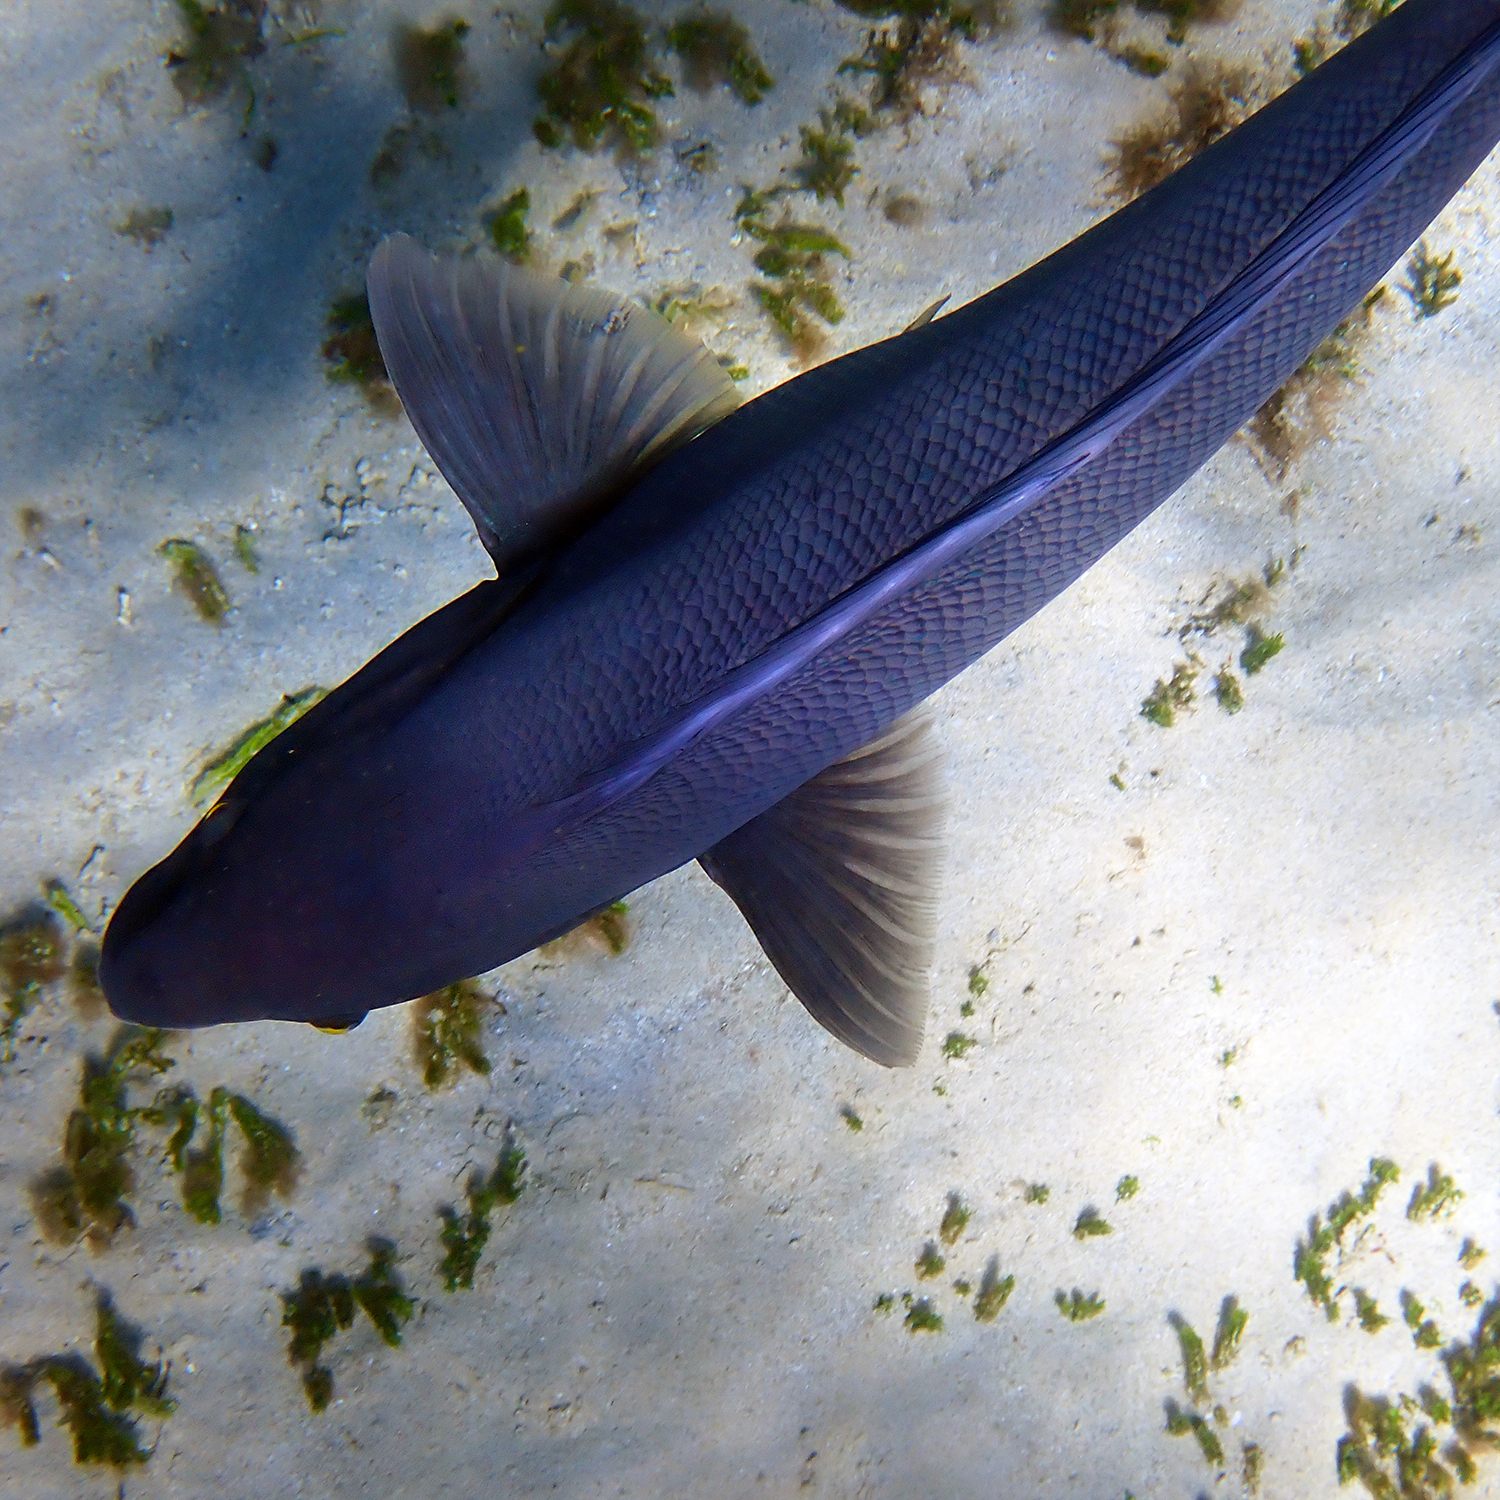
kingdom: Animalia
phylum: Chordata
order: Perciformes
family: Labridae
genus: Coris
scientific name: Coris bulbifrons
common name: Doubleheader
